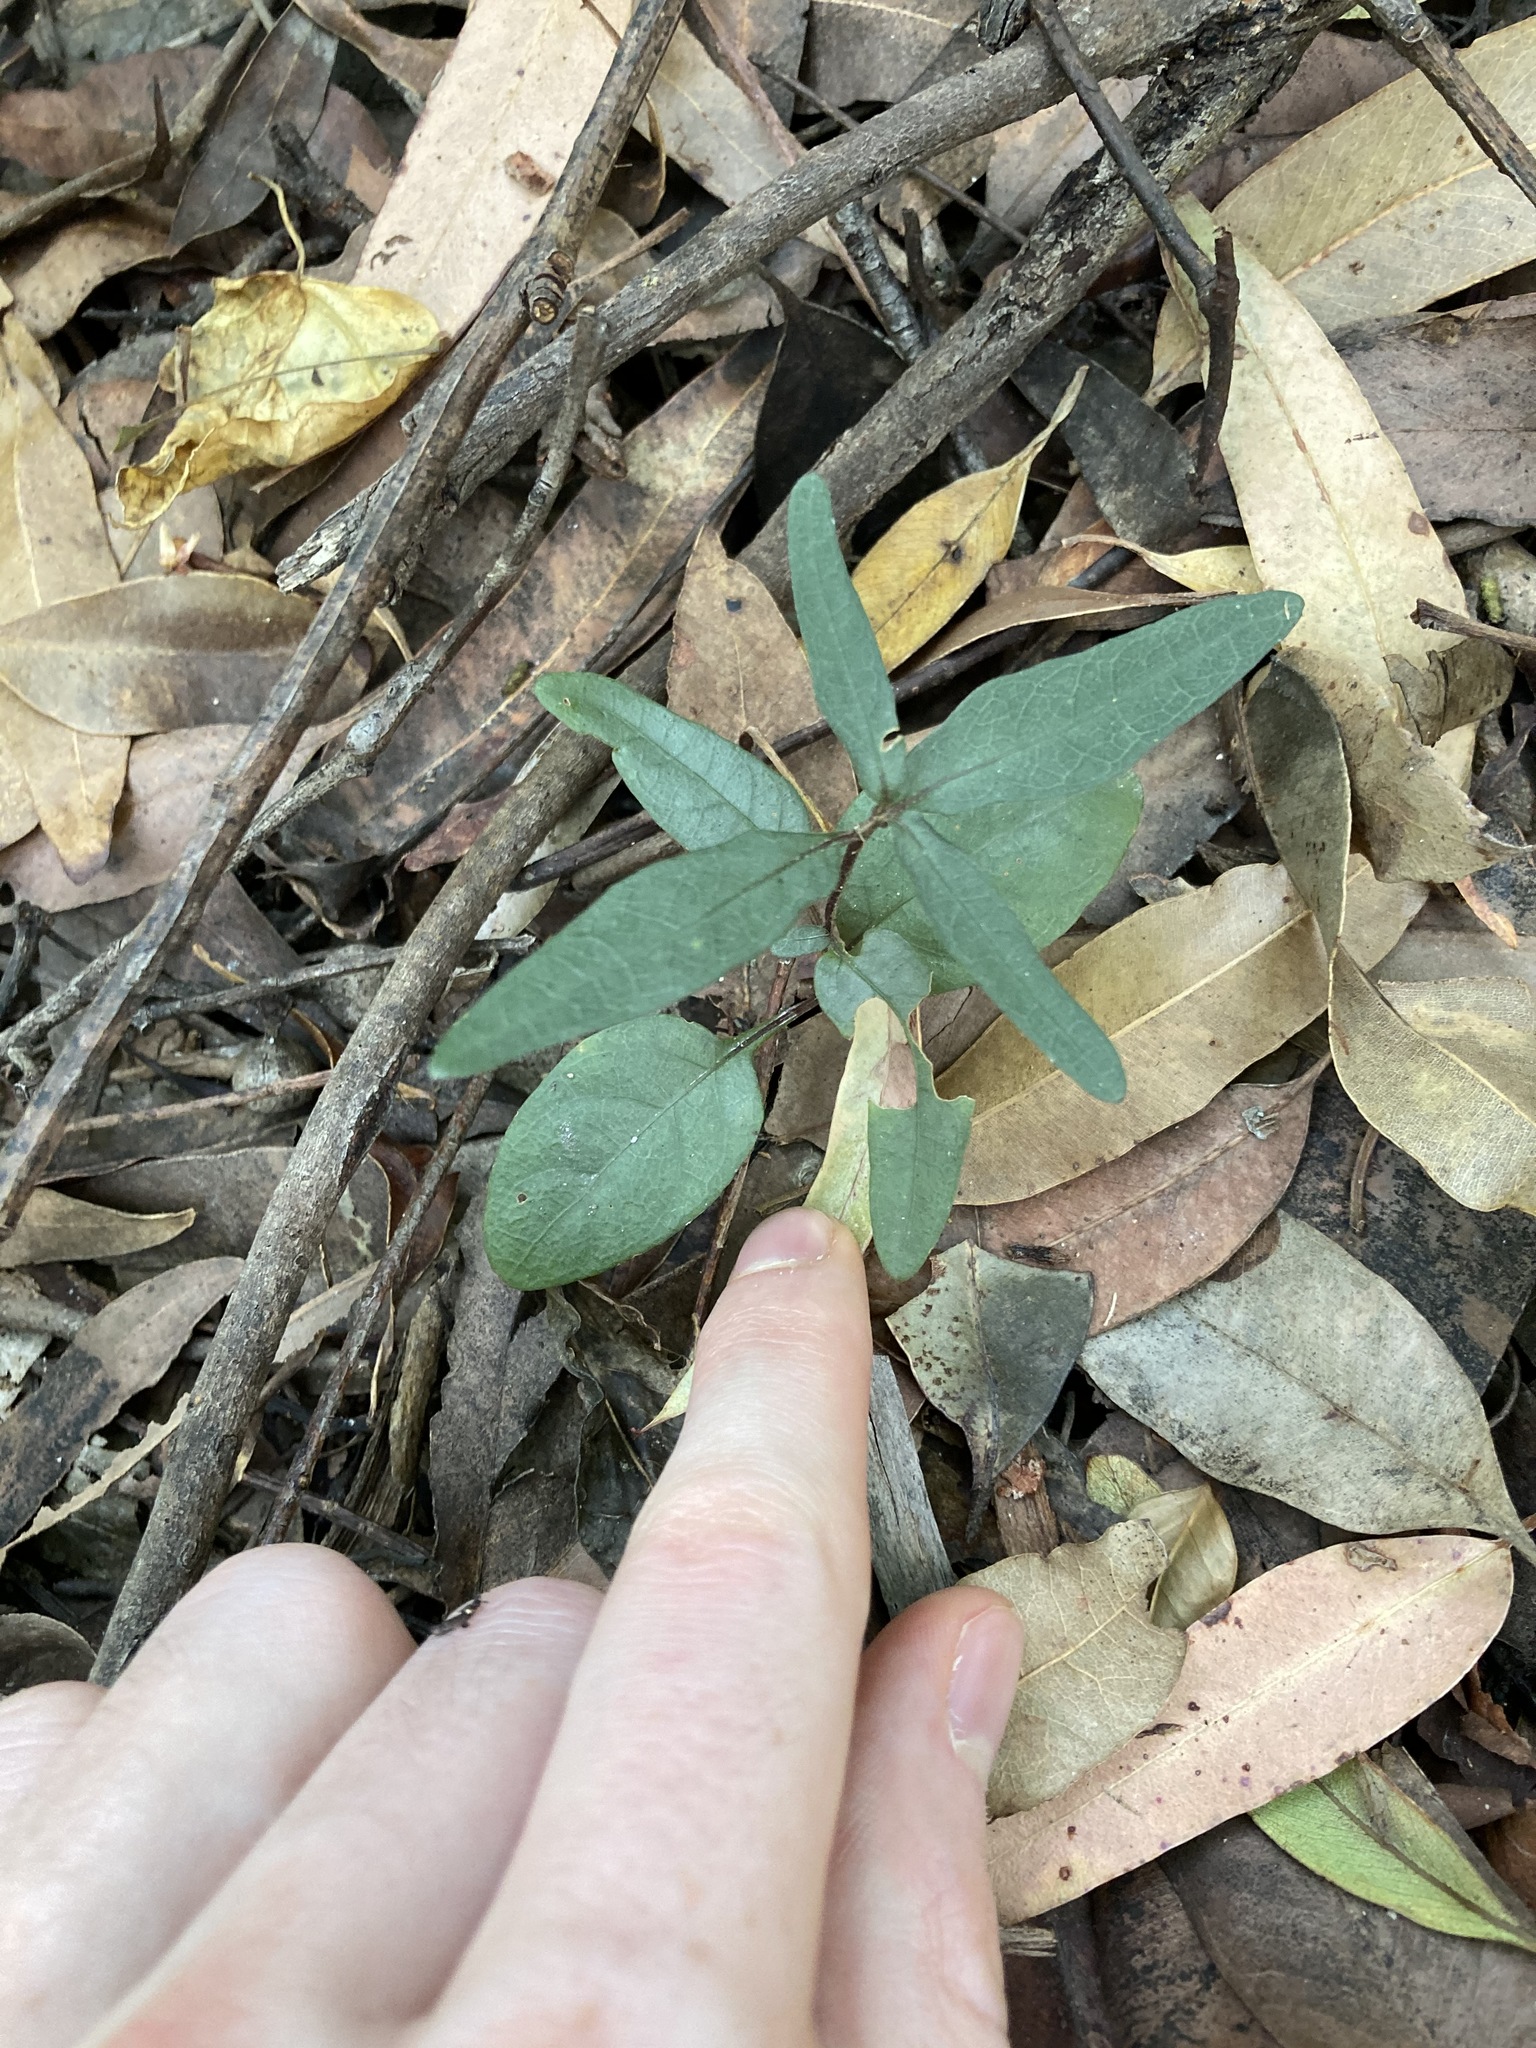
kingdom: Plantae
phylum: Tracheophyta
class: Magnoliopsida
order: Lamiales
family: Acanthaceae
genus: Pseuderanthemum
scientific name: Pseuderanthemum variabile
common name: Night and afternoon
